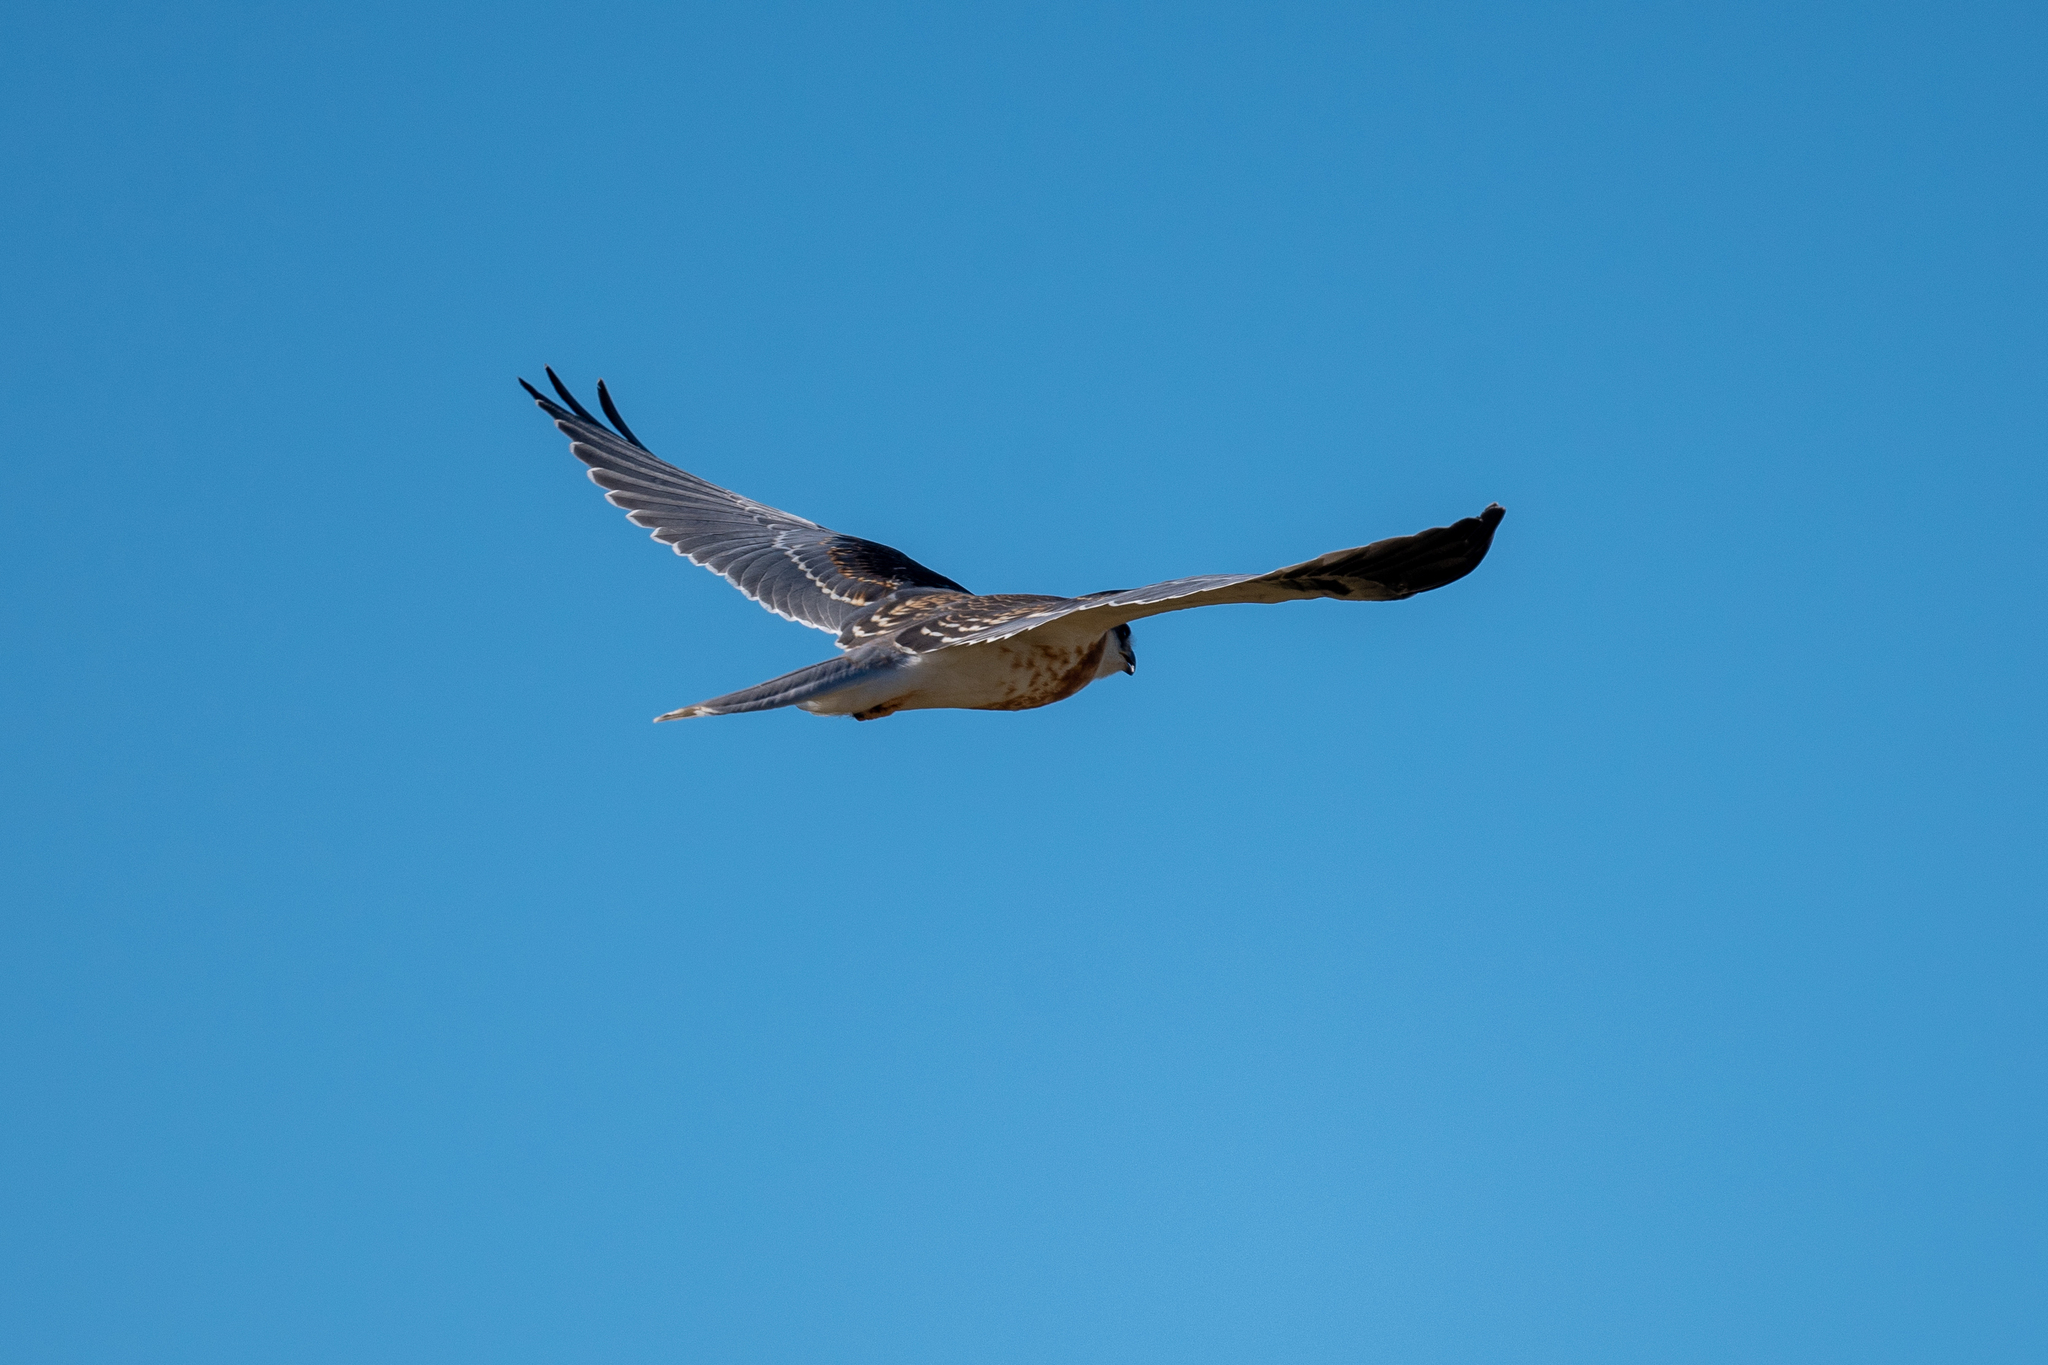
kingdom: Animalia
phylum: Chordata
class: Aves
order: Accipitriformes
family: Accipitridae
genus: Elanus
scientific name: Elanus leucurus
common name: White-tailed kite
